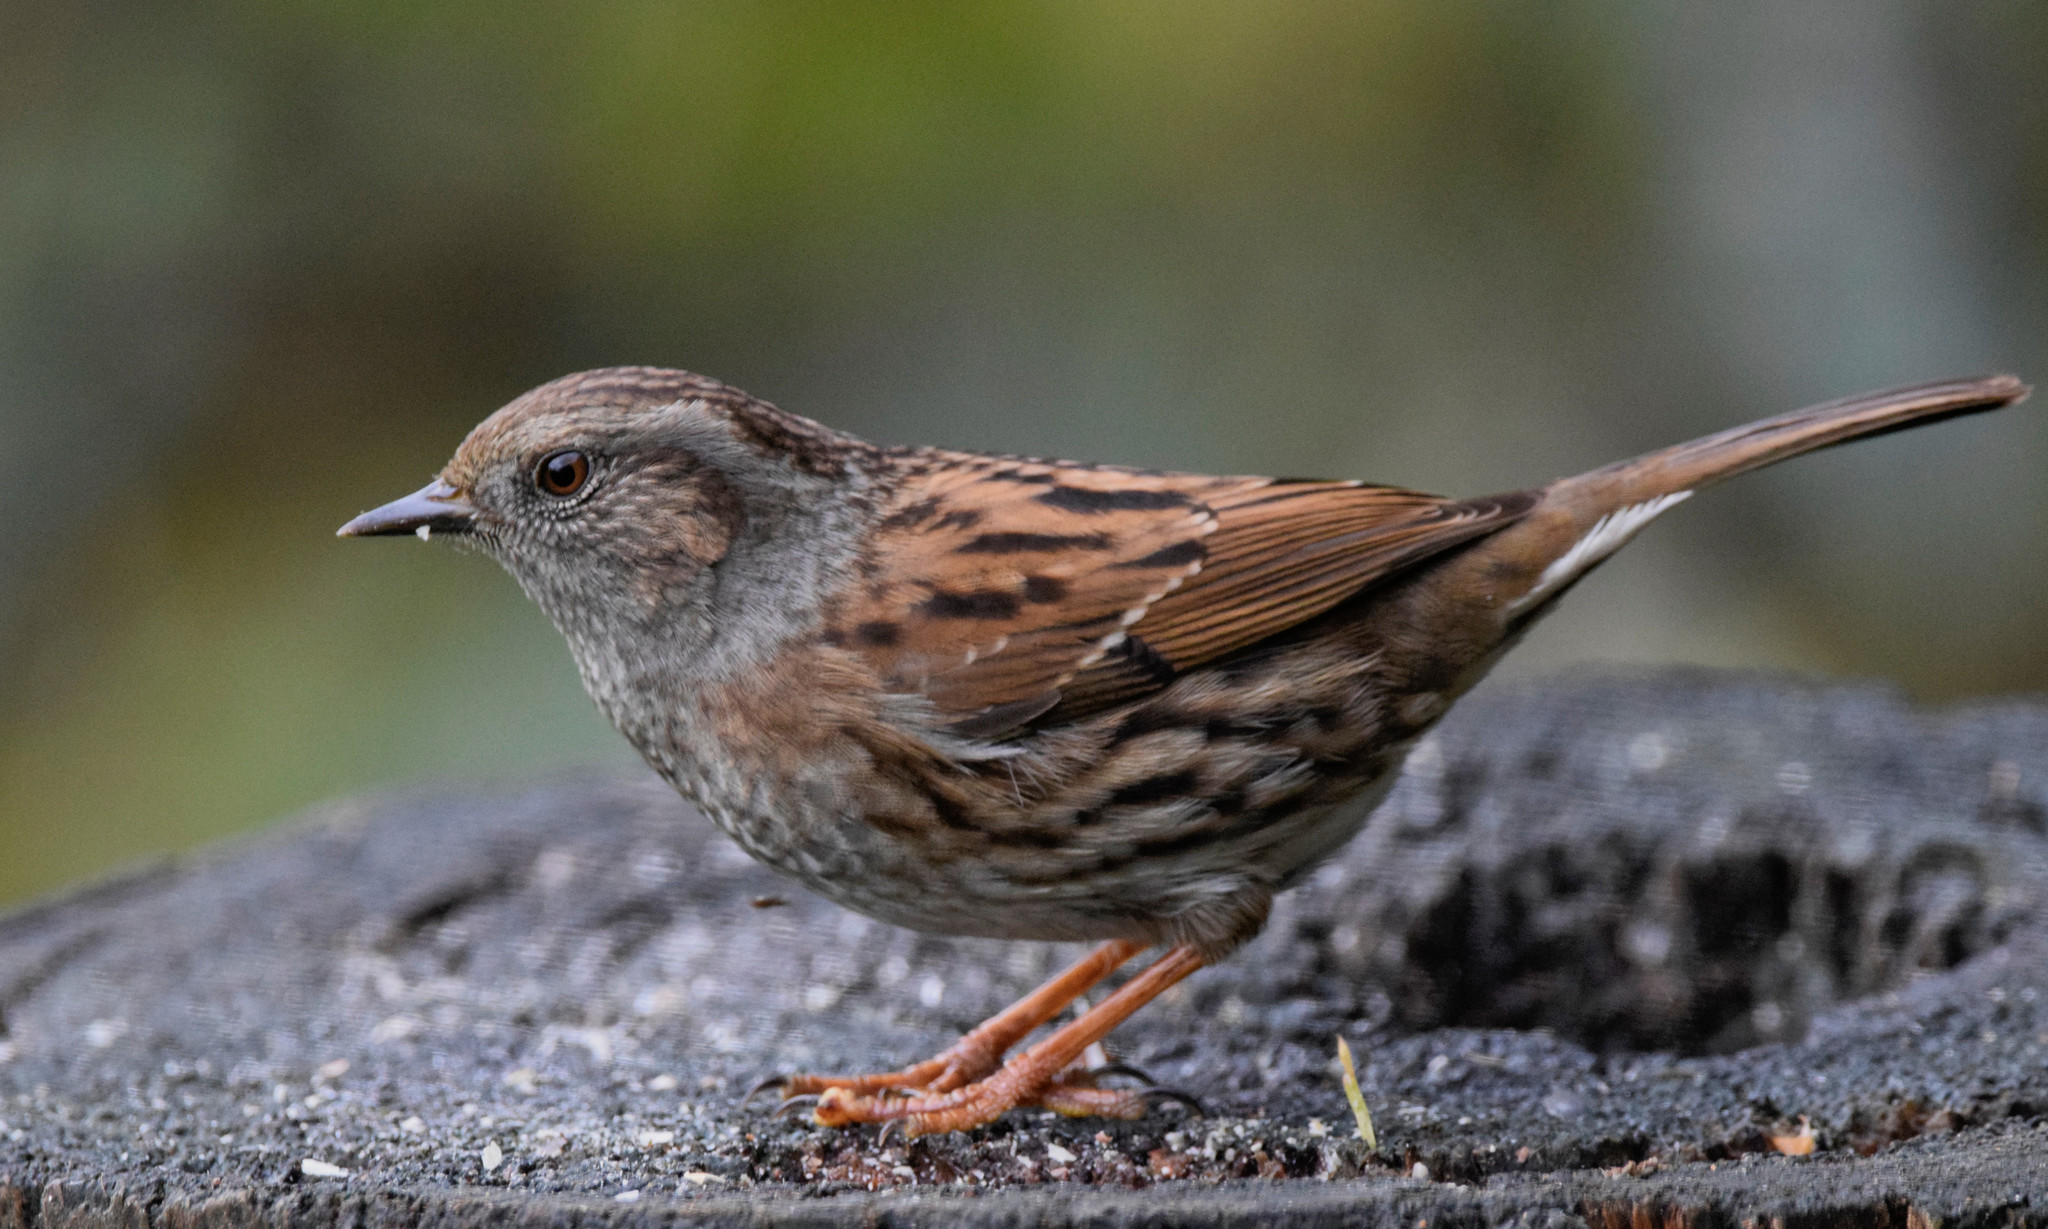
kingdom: Animalia
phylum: Chordata
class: Aves
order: Passeriformes
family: Prunellidae
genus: Prunella
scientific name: Prunella modularis
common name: Dunnock
